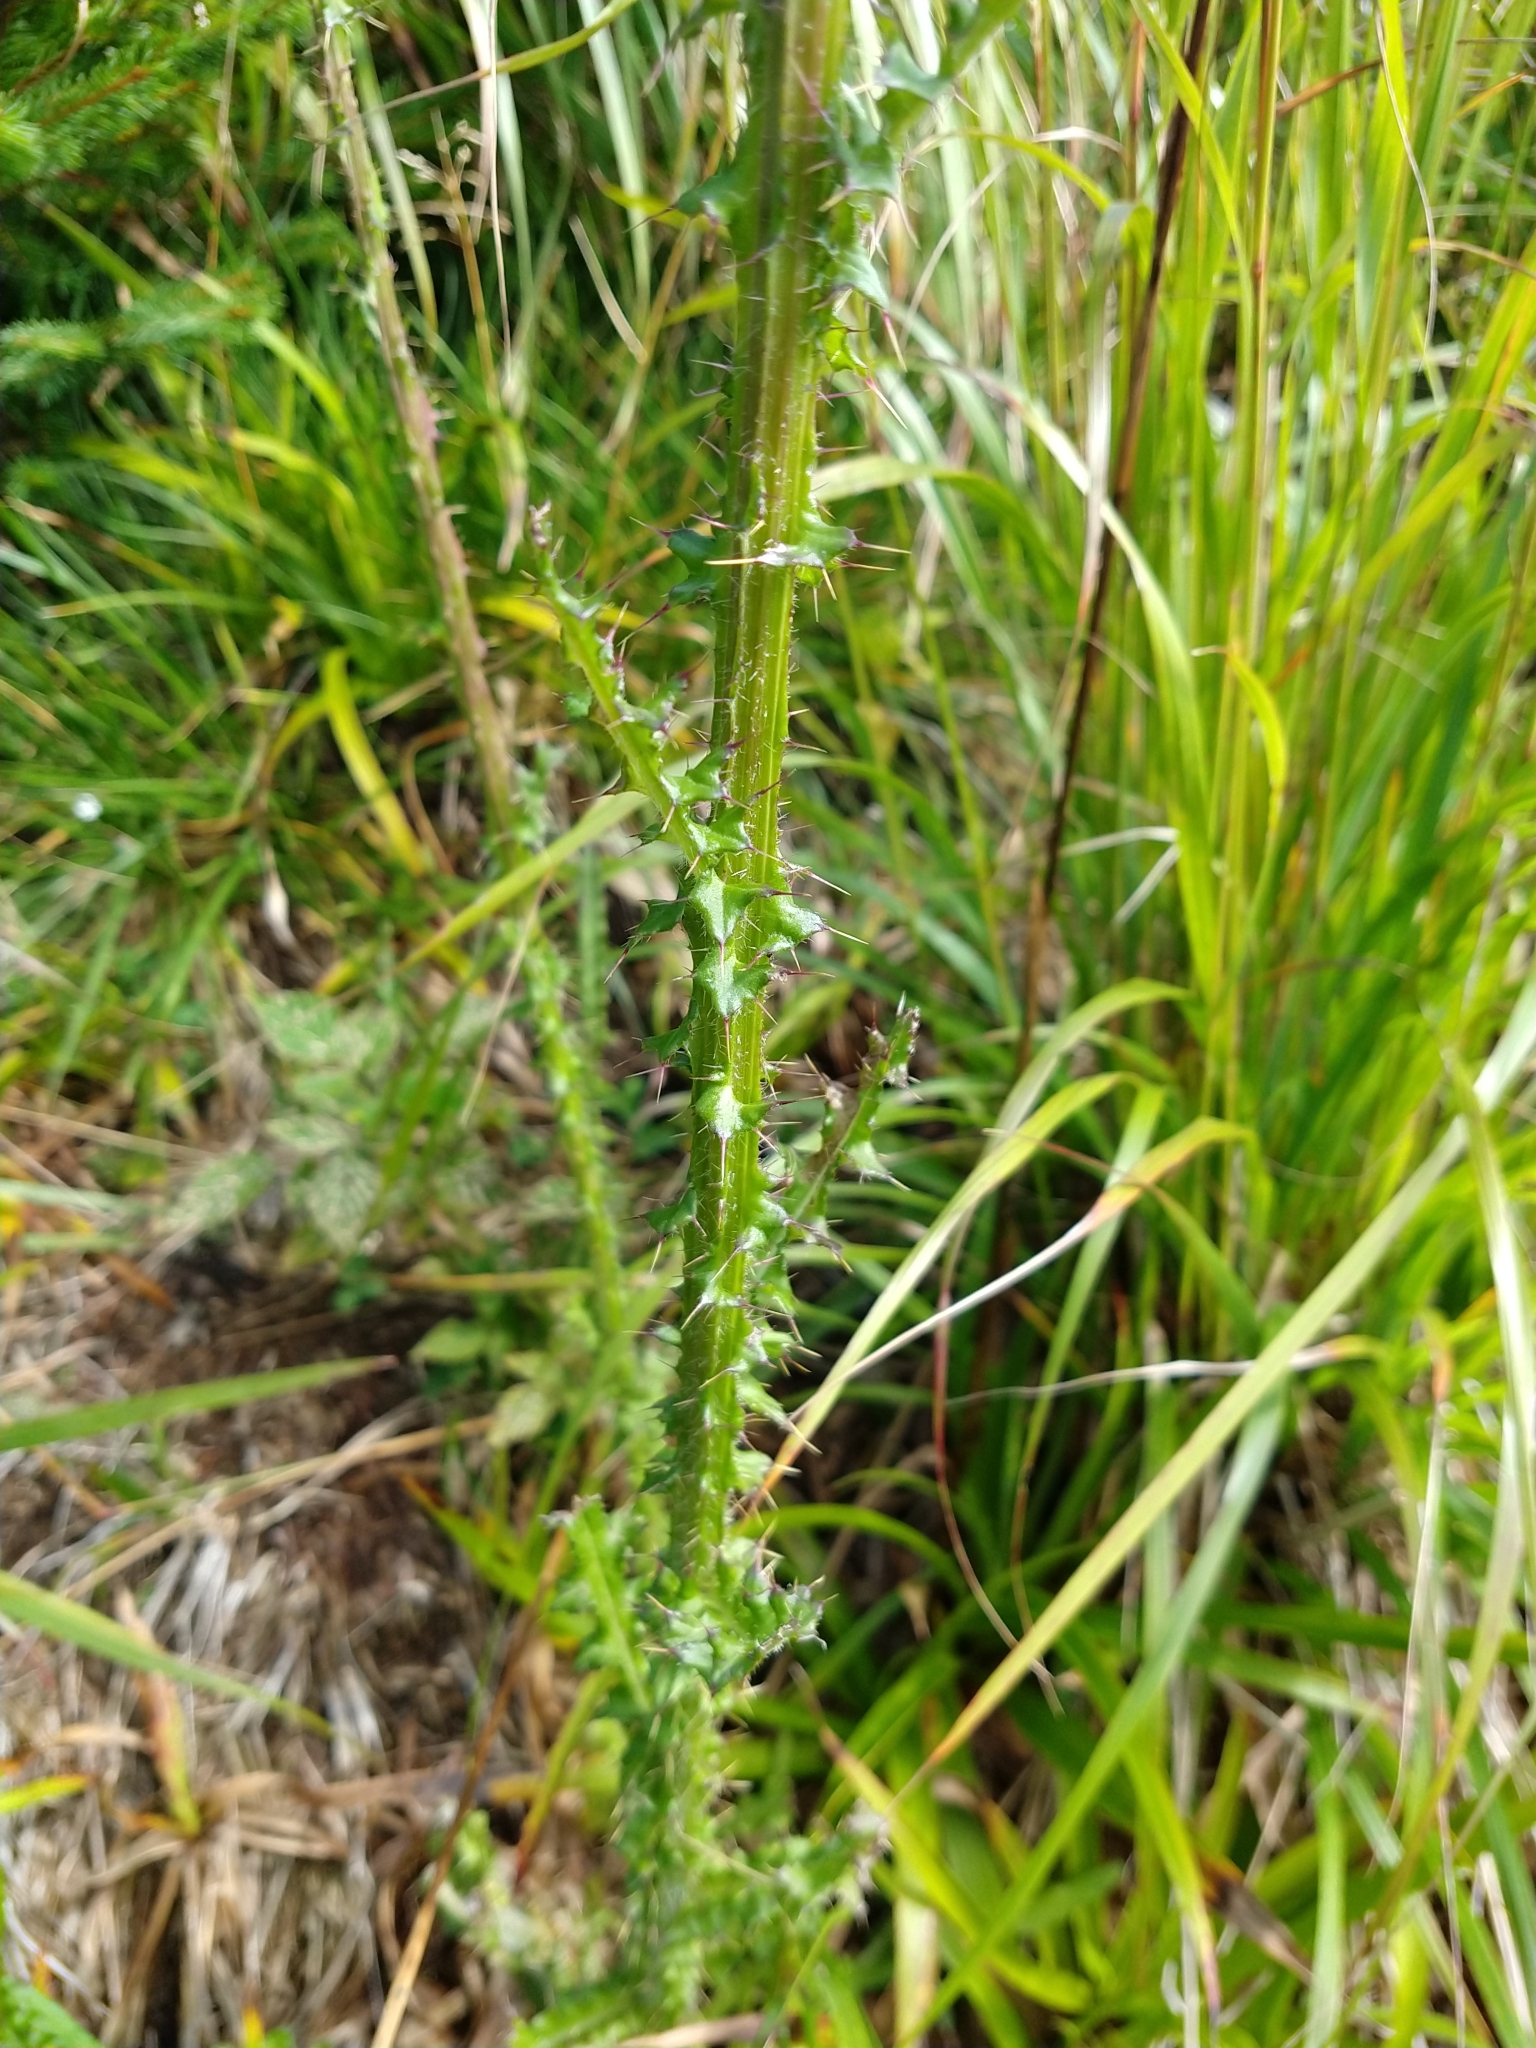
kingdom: Plantae
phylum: Tracheophyta
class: Magnoliopsida
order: Asterales
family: Asteraceae
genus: Cirsium
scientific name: Cirsium palustre
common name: Marsh thistle
